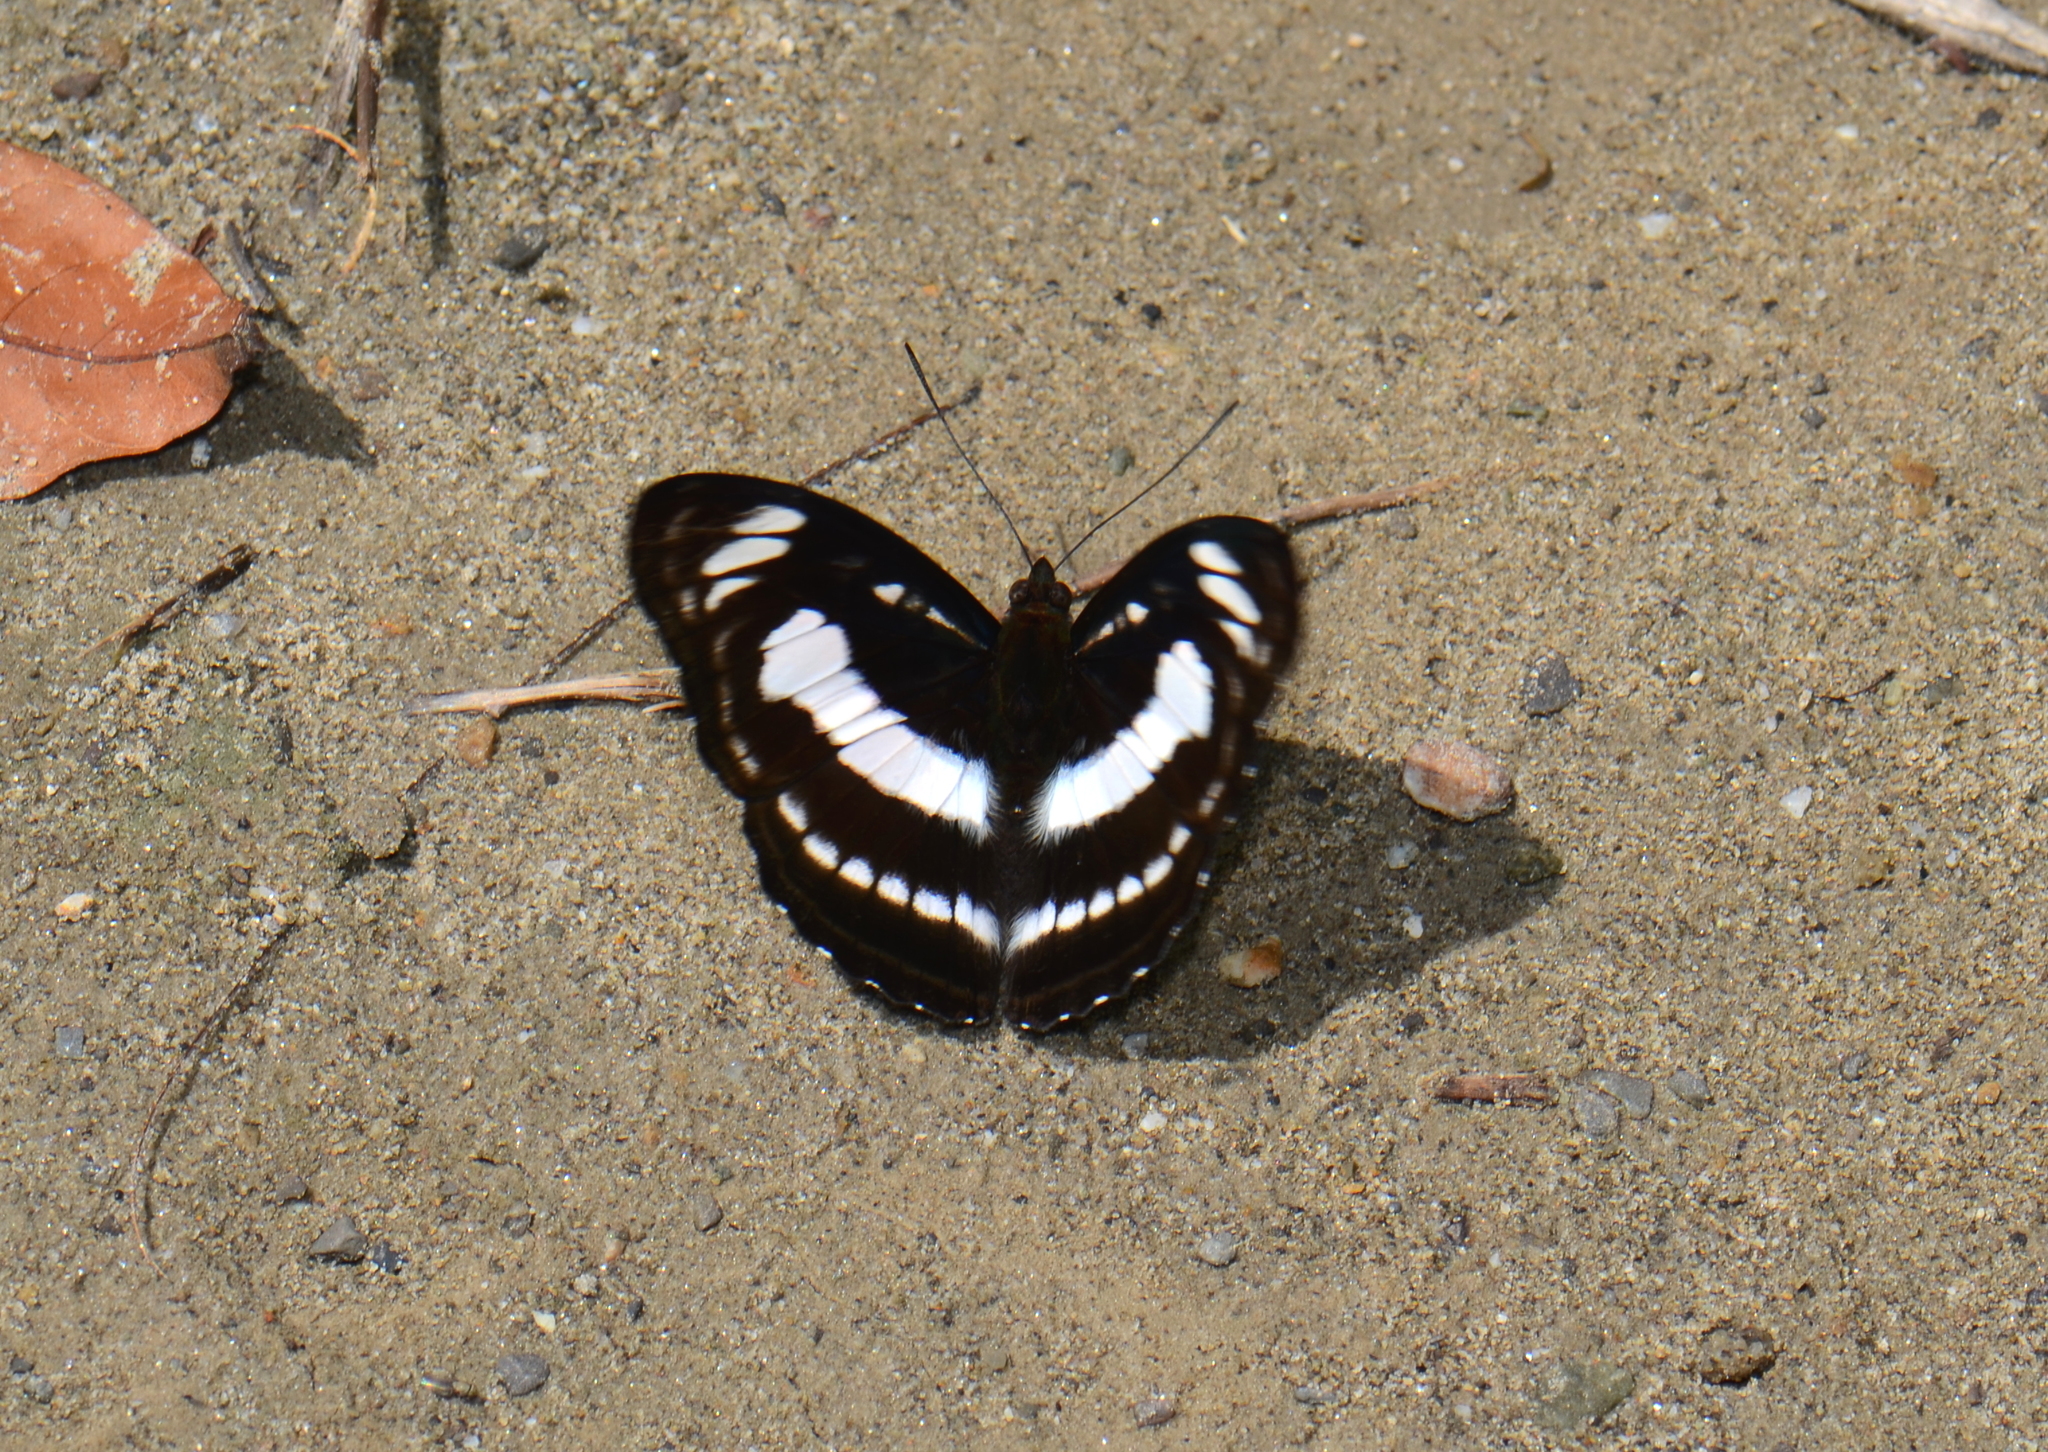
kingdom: Animalia
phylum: Arthropoda
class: Insecta
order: Lepidoptera
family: Nymphalidae
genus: Parathyma
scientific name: Parathyma selenophora
